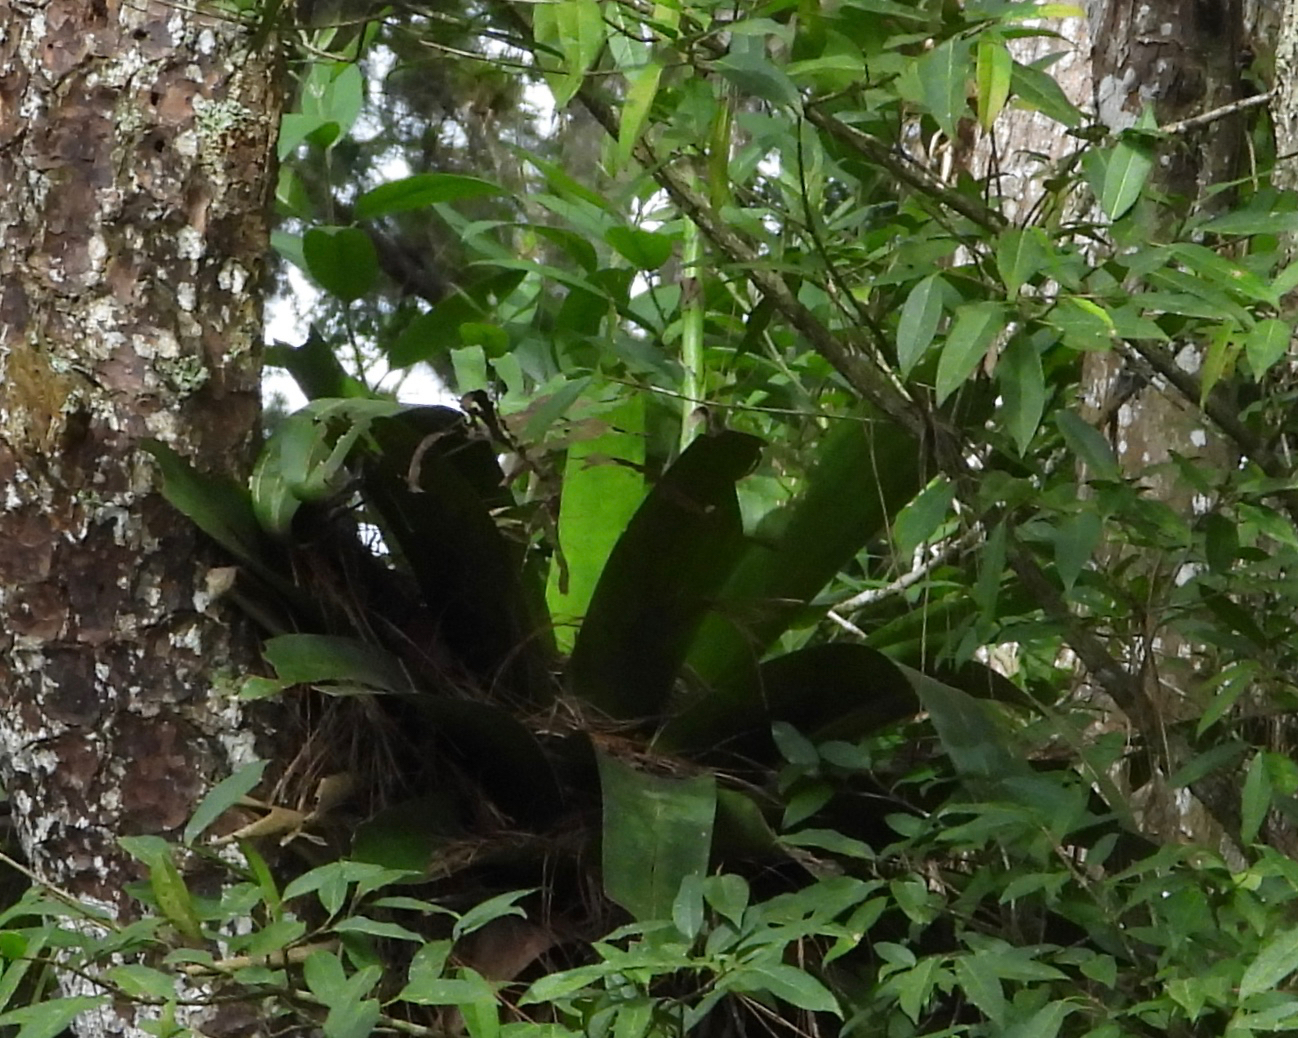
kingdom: Plantae
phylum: Tracheophyta
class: Liliopsida
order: Poales
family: Bromeliaceae
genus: Werauhia
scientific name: Werauhia werckleana
